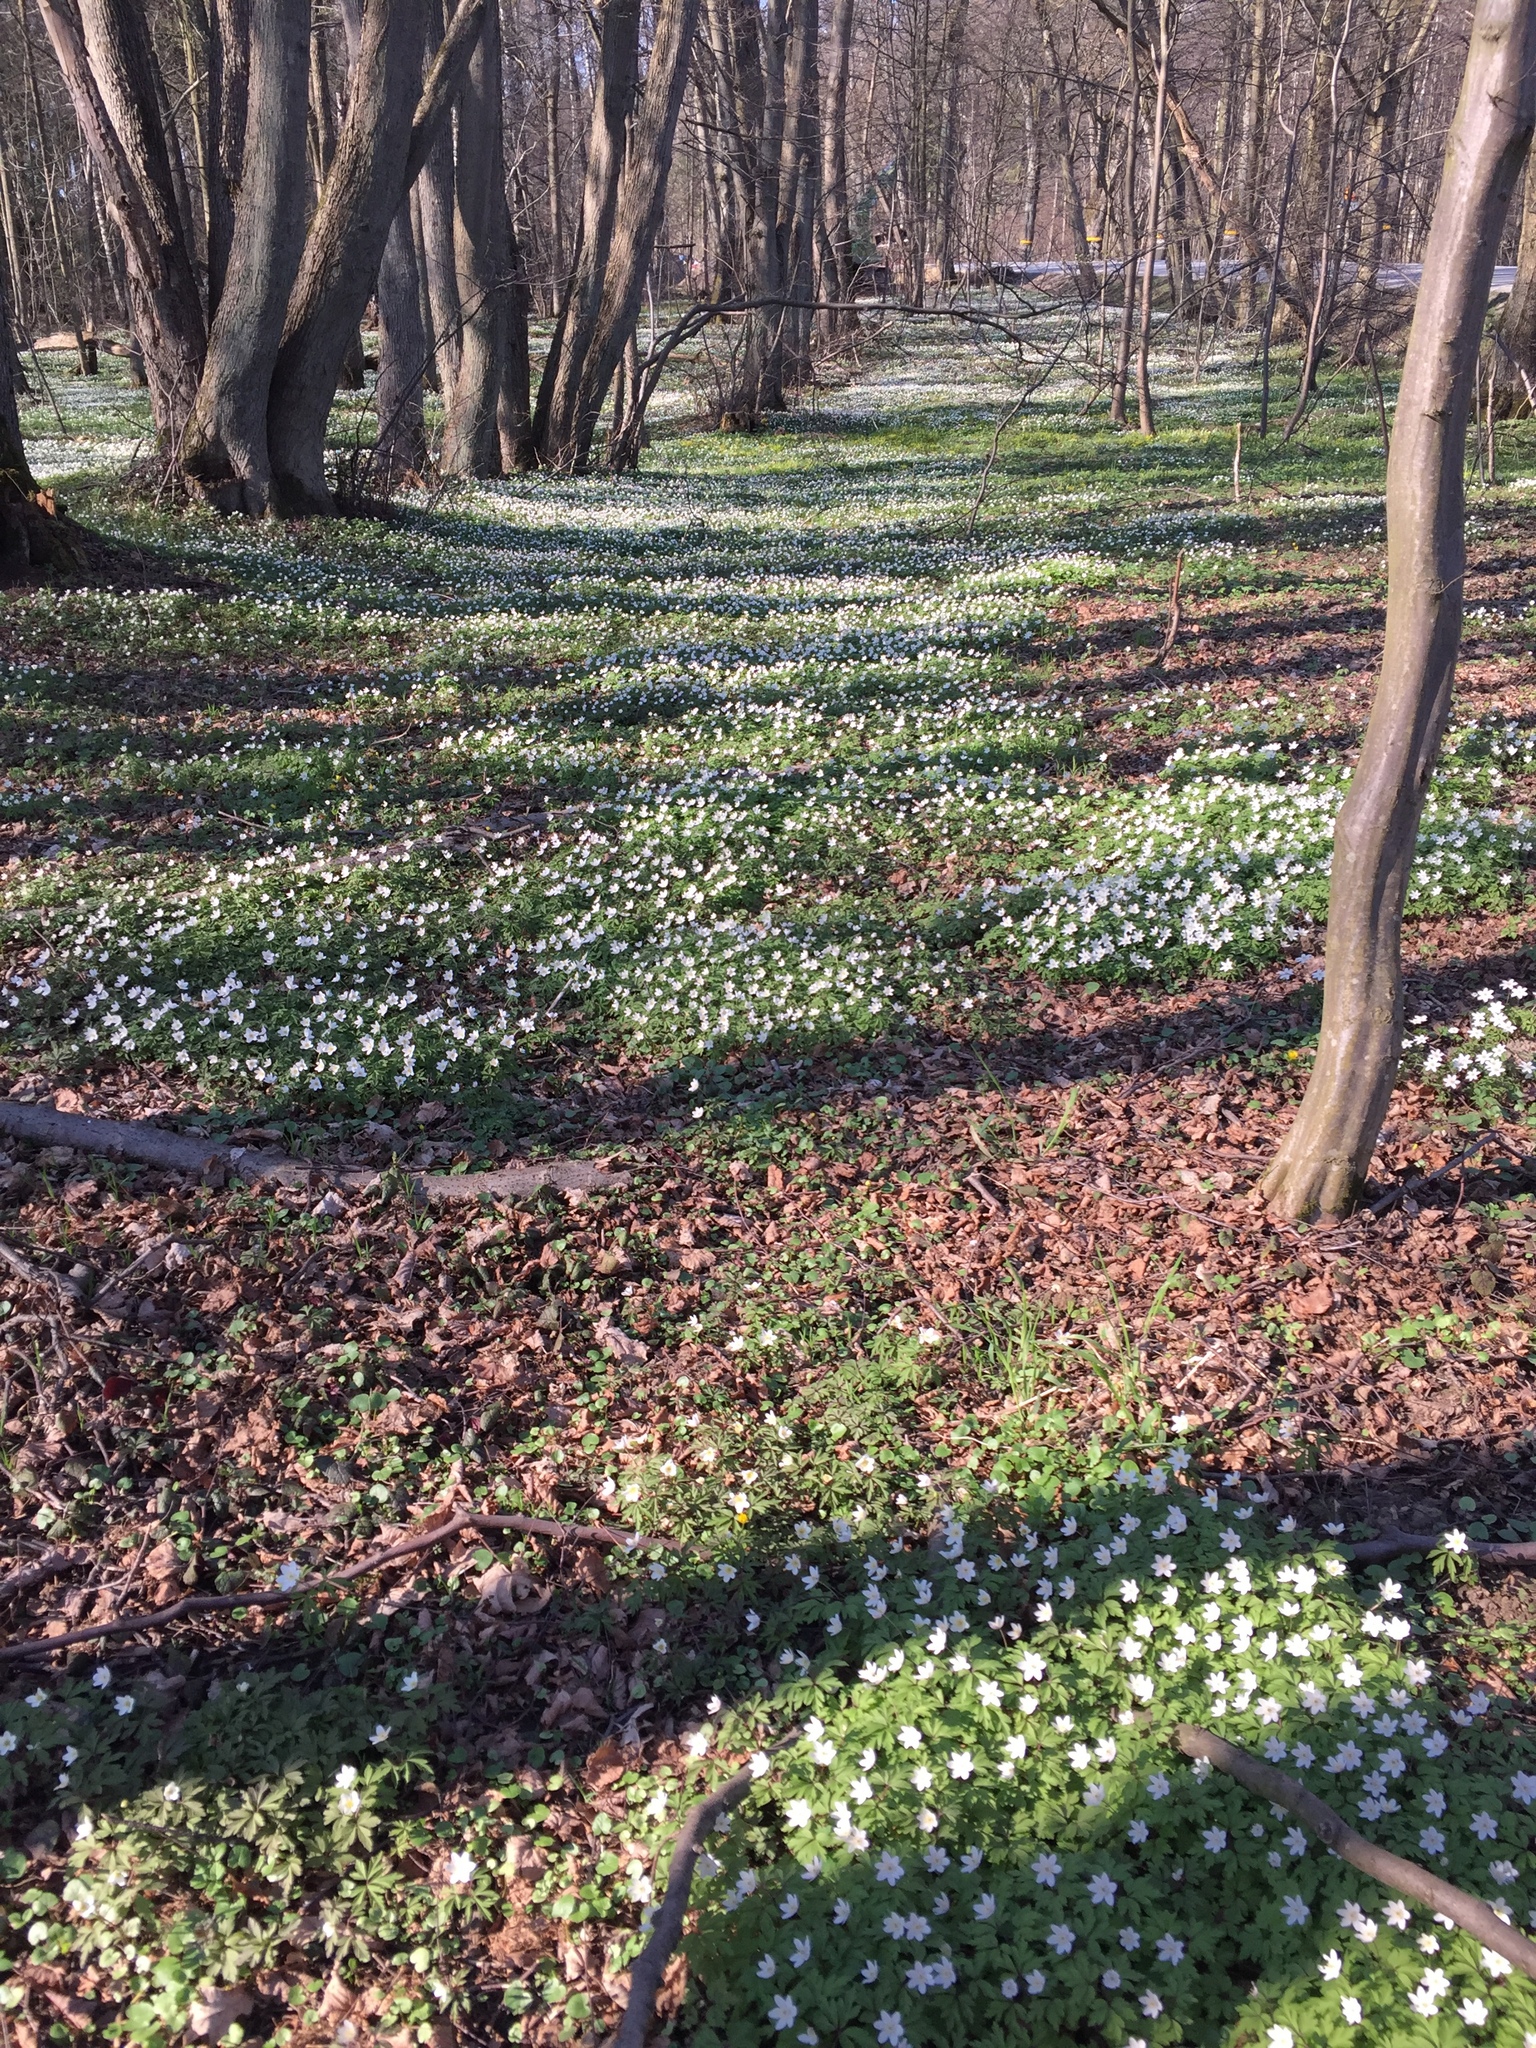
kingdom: Plantae
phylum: Tracheophyta
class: Magnoliopsida
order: Ranunculales
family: Ranunculaceae
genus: Anemone
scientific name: Anemone nemorosa
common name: Wood anemone
